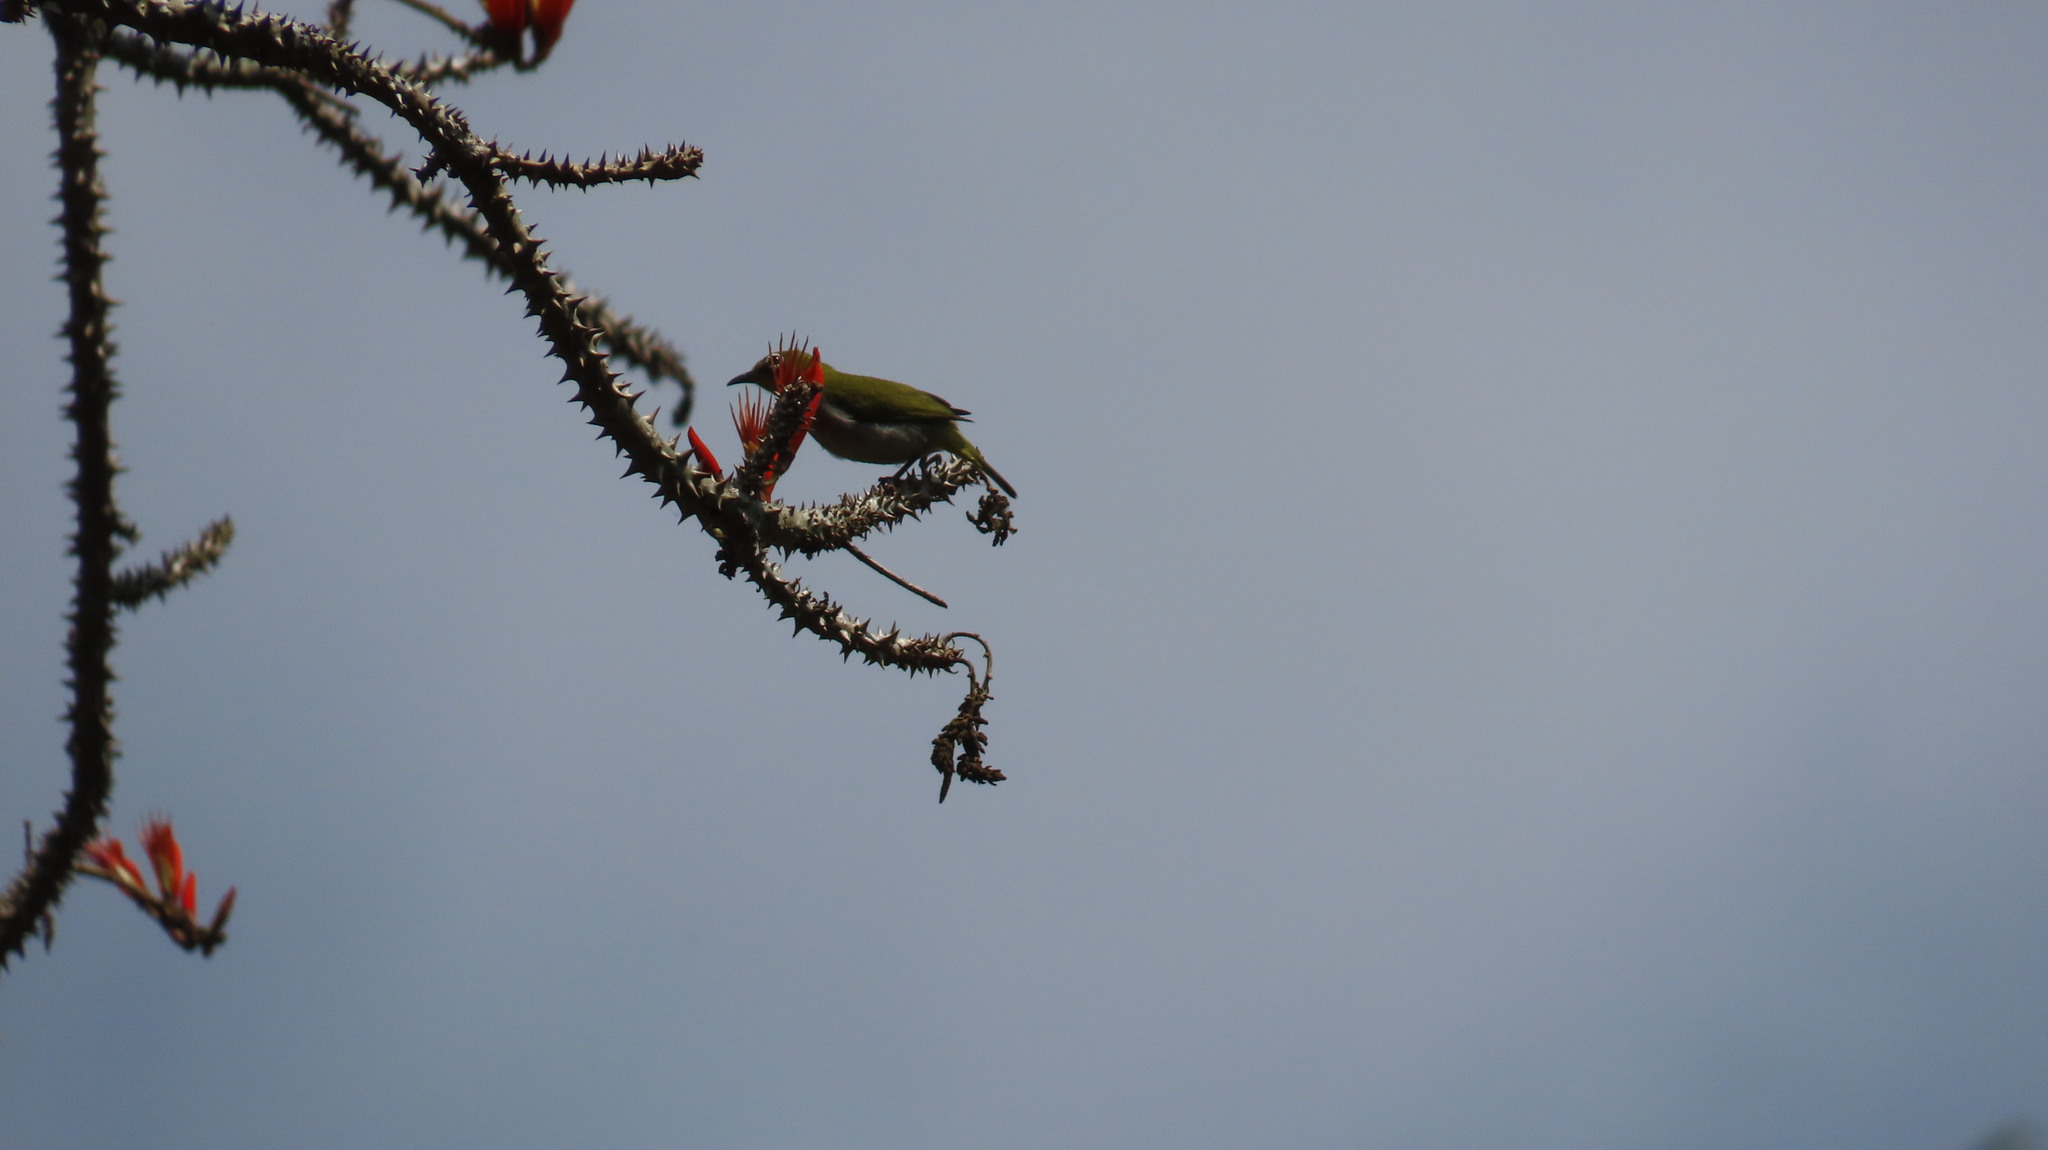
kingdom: Animalia
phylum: Chordata
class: Aves
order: Passeriformes
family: Zosteropidae
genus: Zosterops
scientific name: Zosterops palpebrosus
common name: Oriental white-eye
